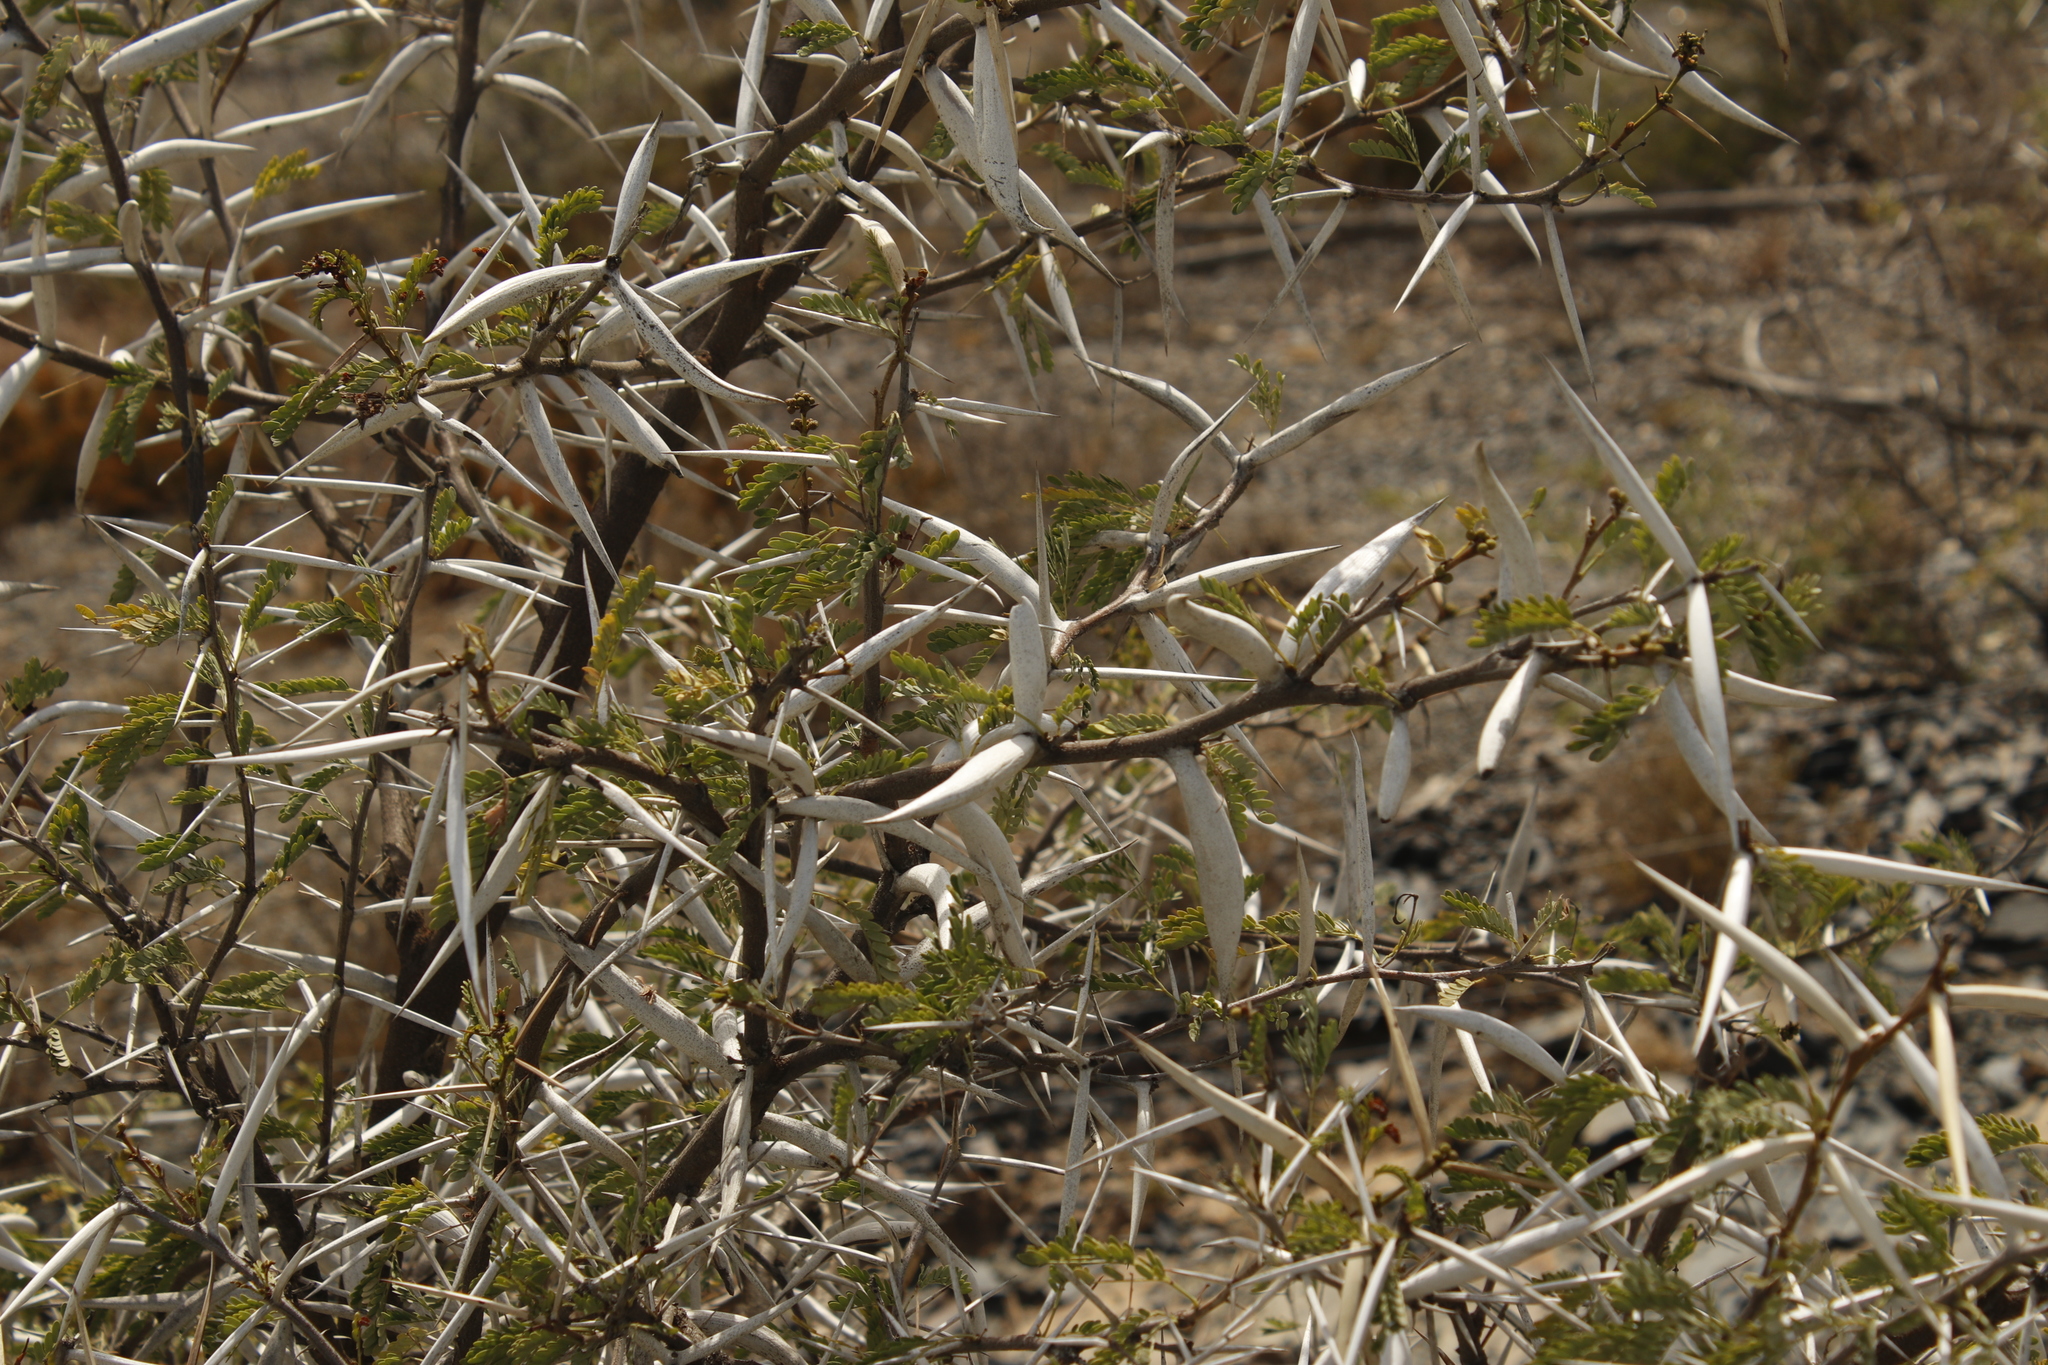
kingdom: Plantae
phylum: Tracheophyta
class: Magnoliopsida
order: Fabales
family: Fabaceae
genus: Vachellia
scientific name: Vachellia karroo
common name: Sweet thorn
